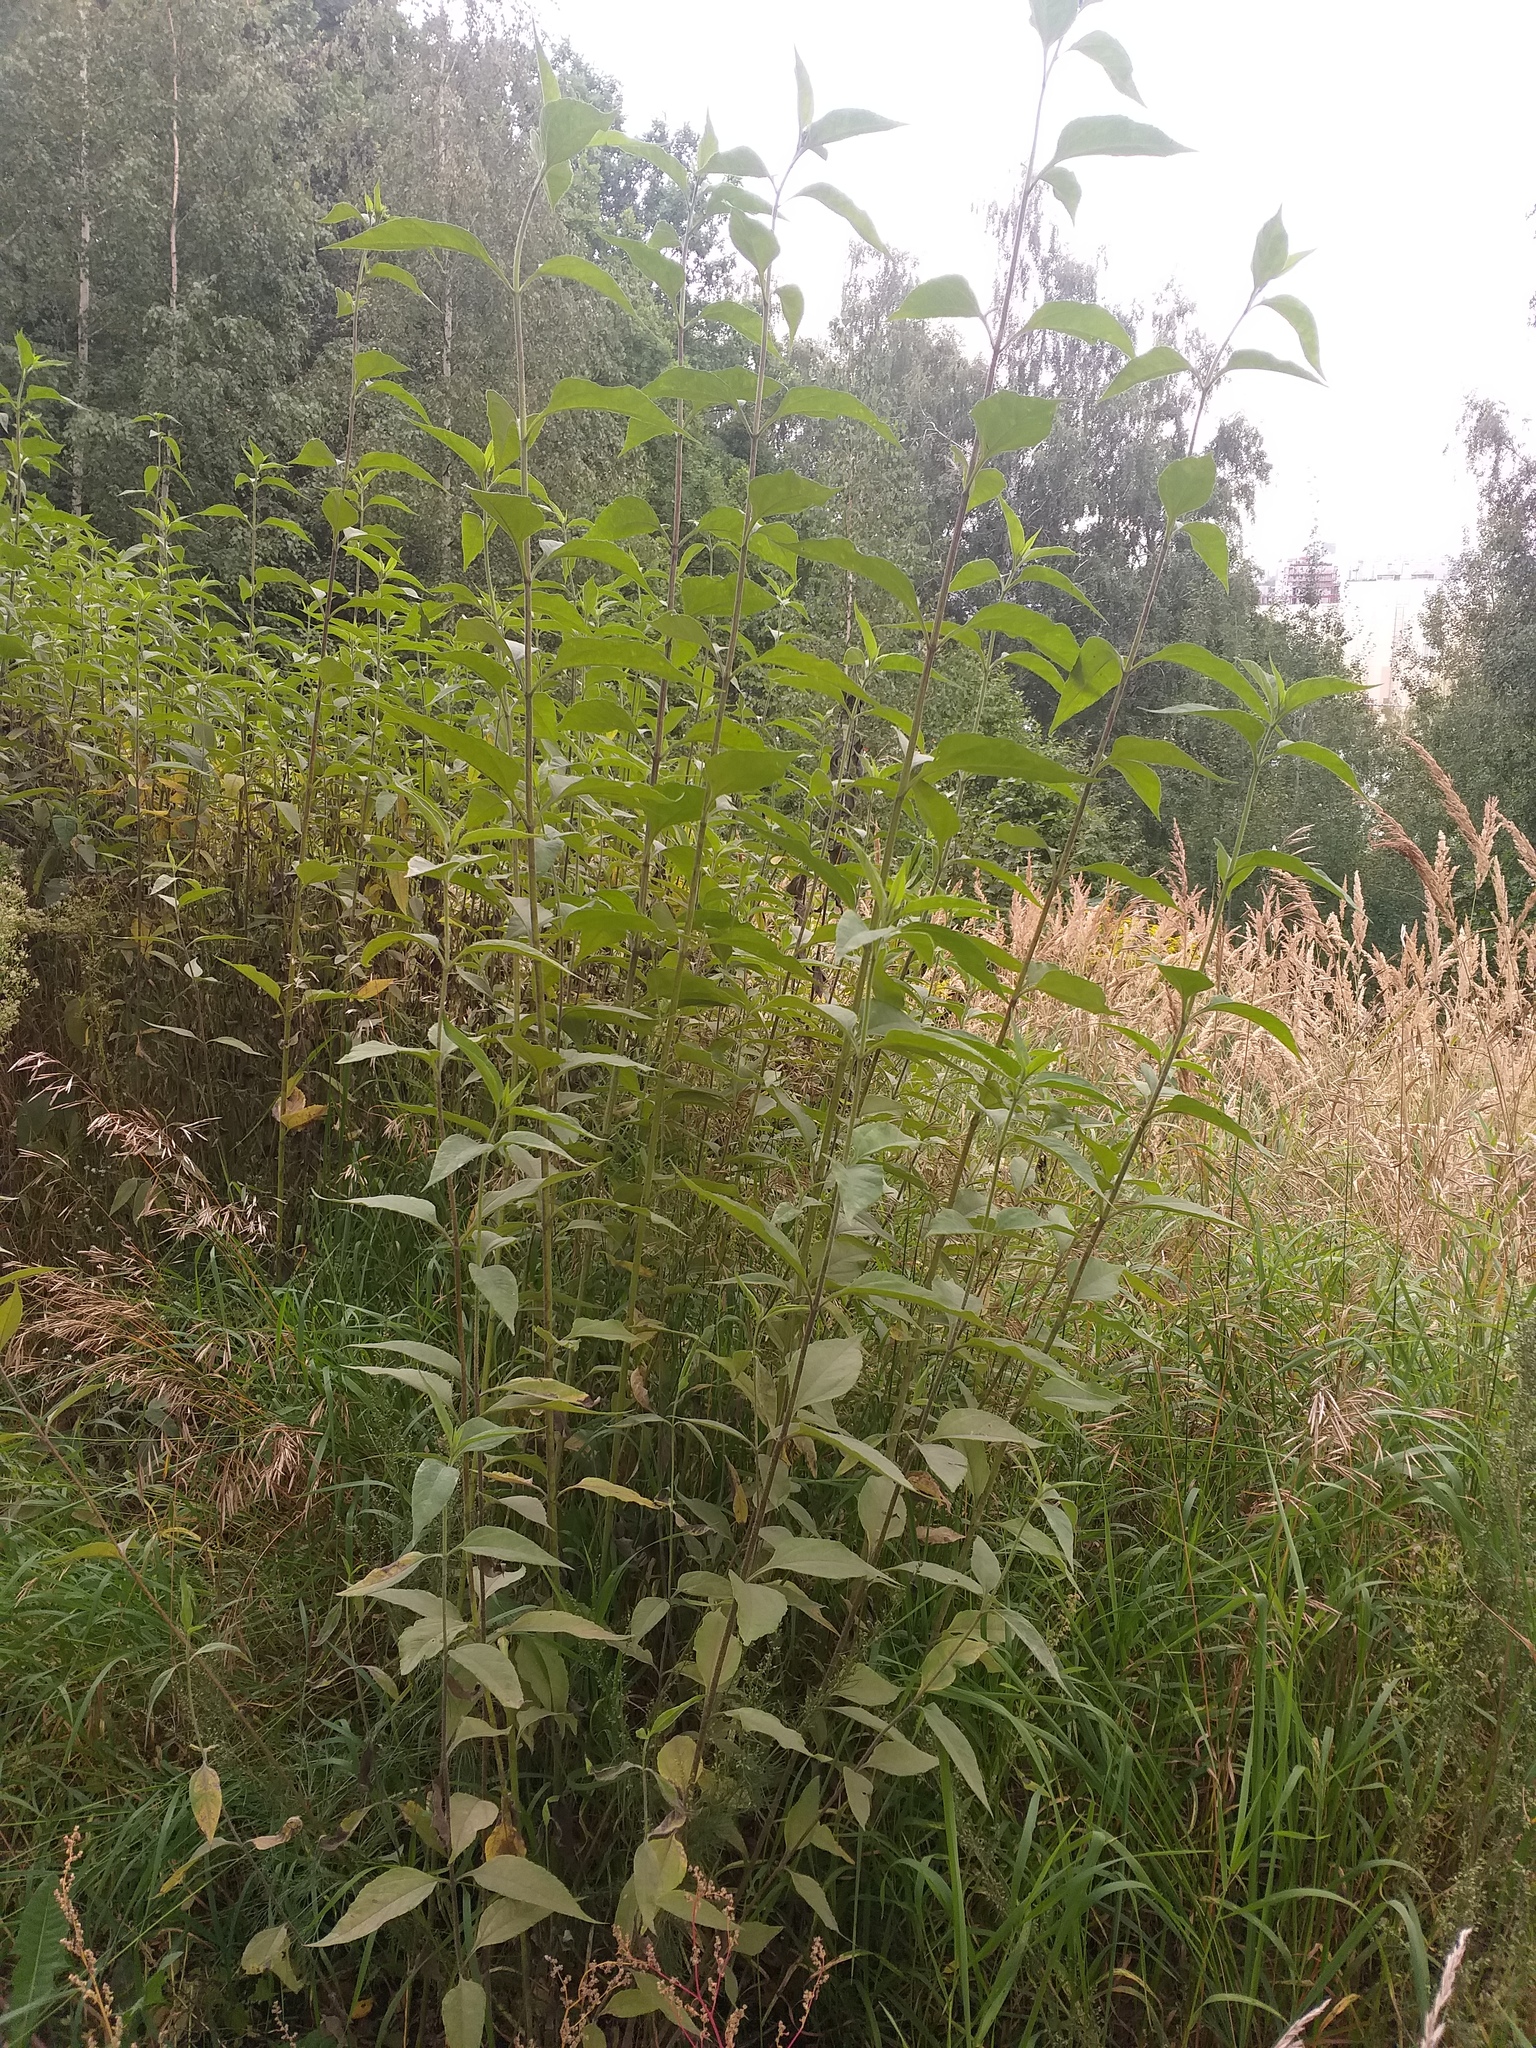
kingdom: Plantae
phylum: Tracheophyta
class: Magnoliopsida
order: Asterales
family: Asteraceae
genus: Helianthus
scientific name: Helianthus tuberosus
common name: Jerusalem artichoke
